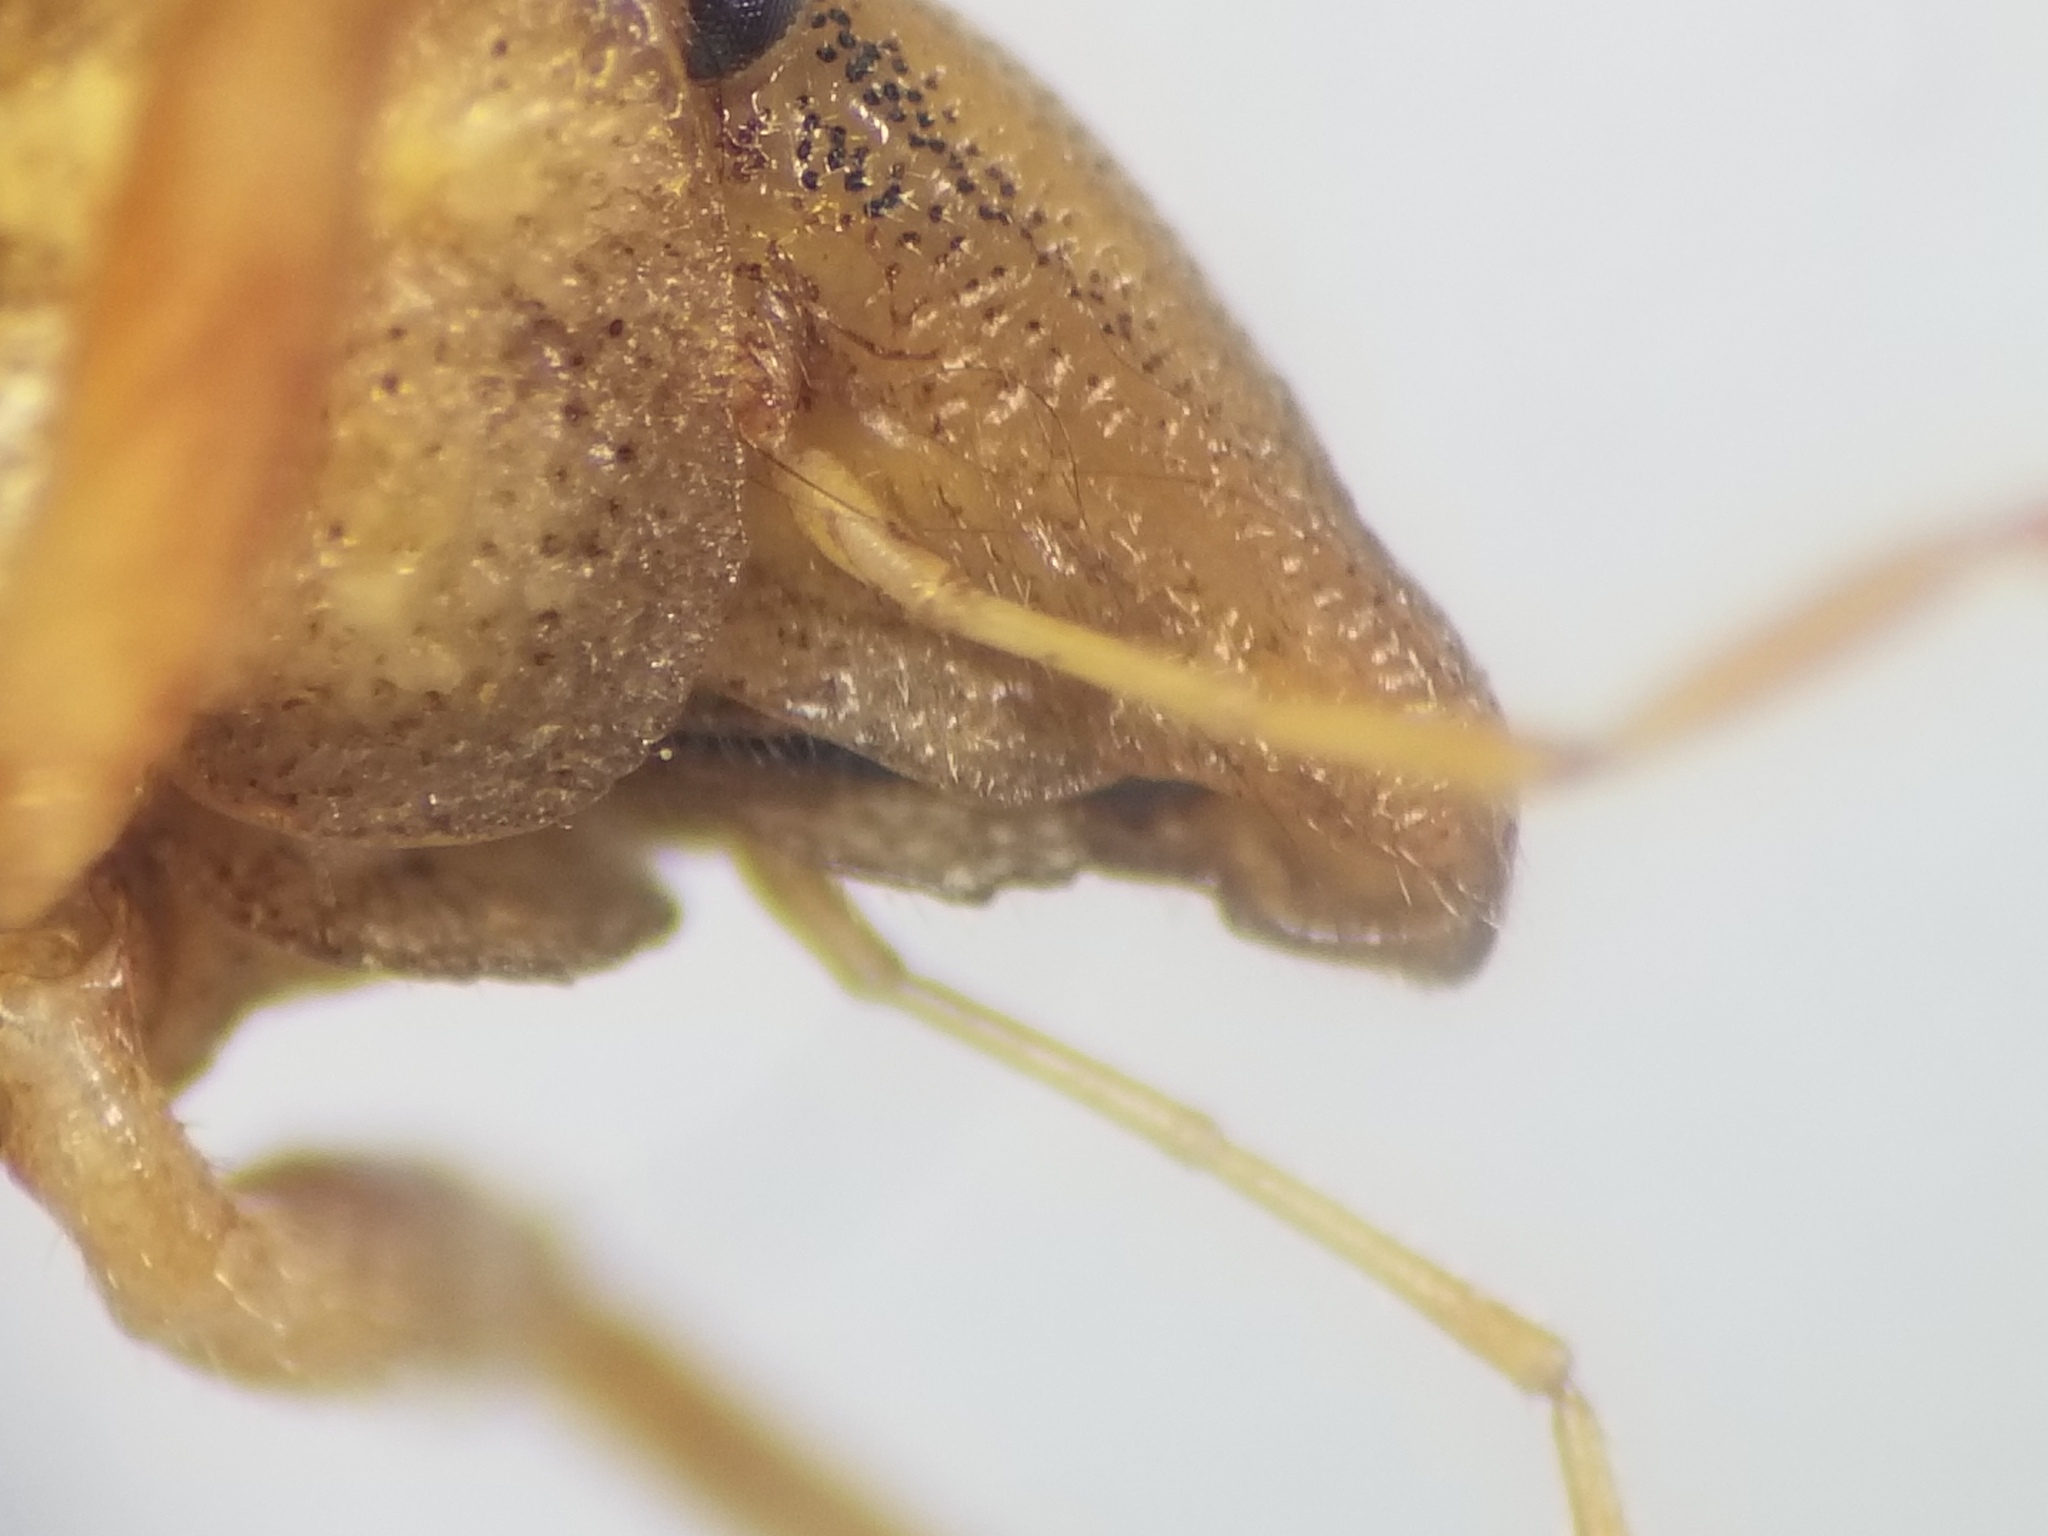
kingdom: Animalia
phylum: Arthropoda
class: Insecta
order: Hemiptera
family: Pentatomidae
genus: Aelia
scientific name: Aelia rostrata
